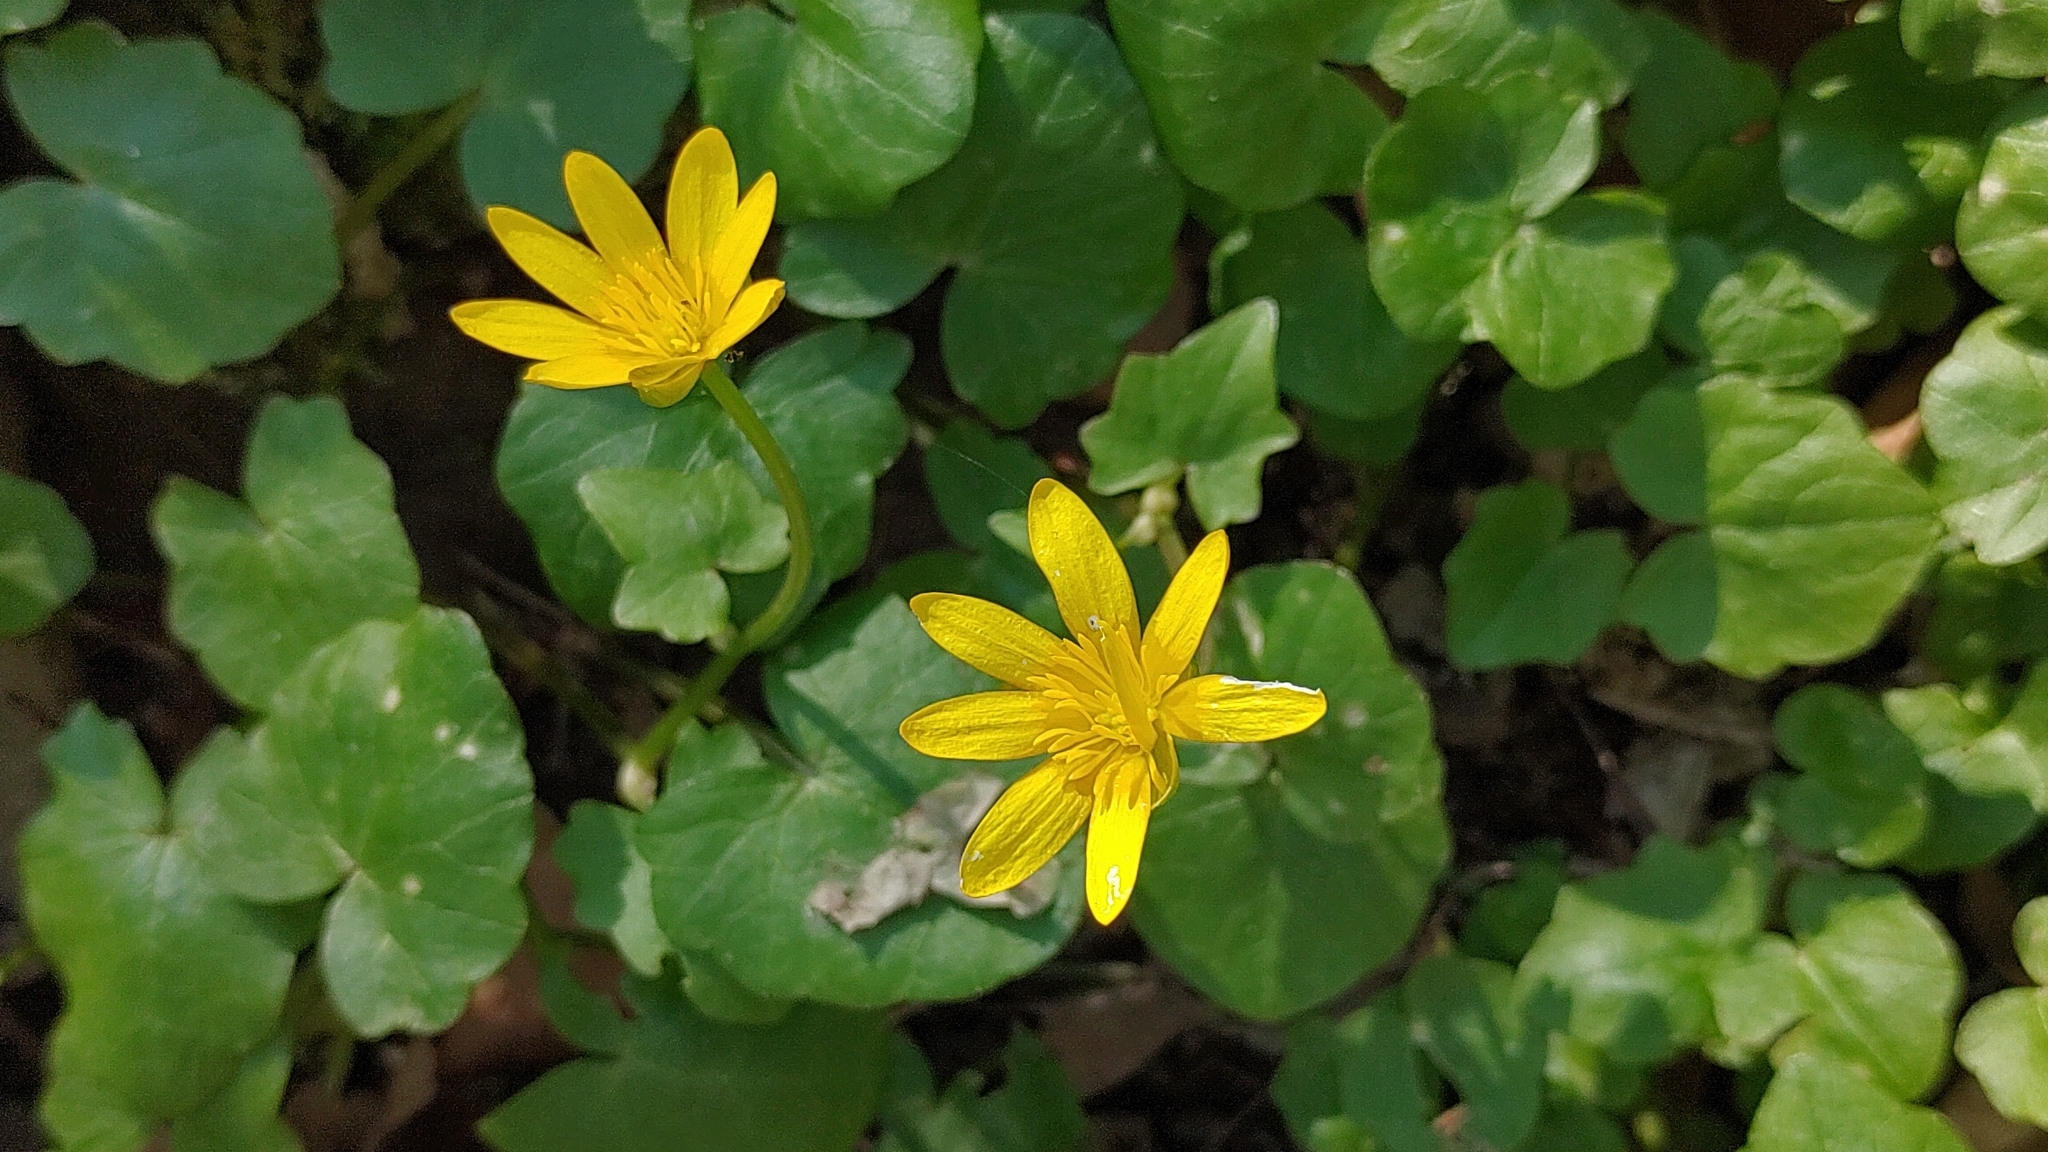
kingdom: Plantae
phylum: Tracheophyta
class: Magnoliopsida
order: Ranunculales
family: Ranunculaceae
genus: Ficaria
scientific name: Ficaria verna
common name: Lesser celandine
